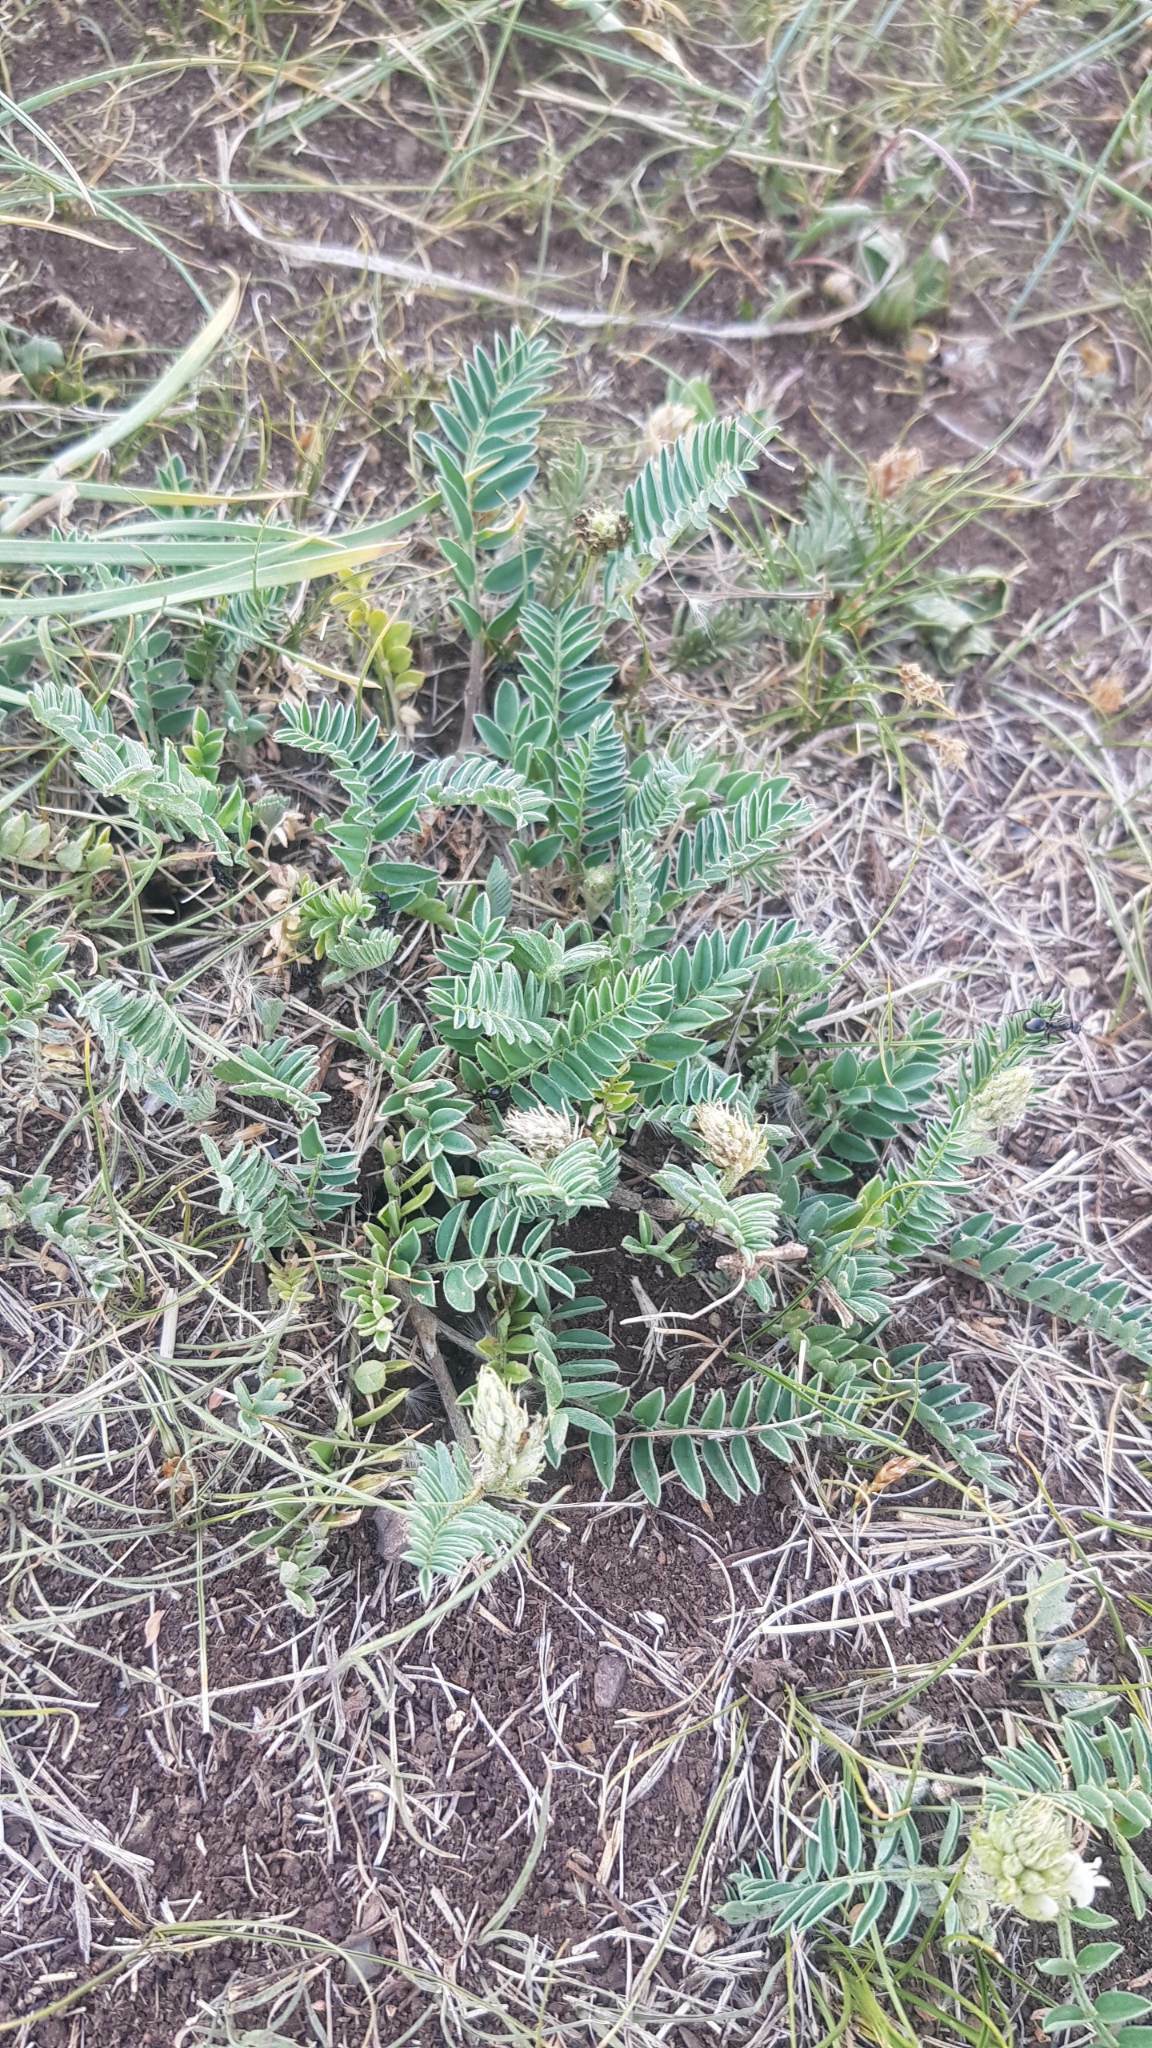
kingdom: Plantae
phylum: Tracheophyta
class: Magnoliopsida
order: Fabales
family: Fabaceae
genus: Astragalus
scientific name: Astragalus laxmannii
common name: Laxmann's milk-vetch
